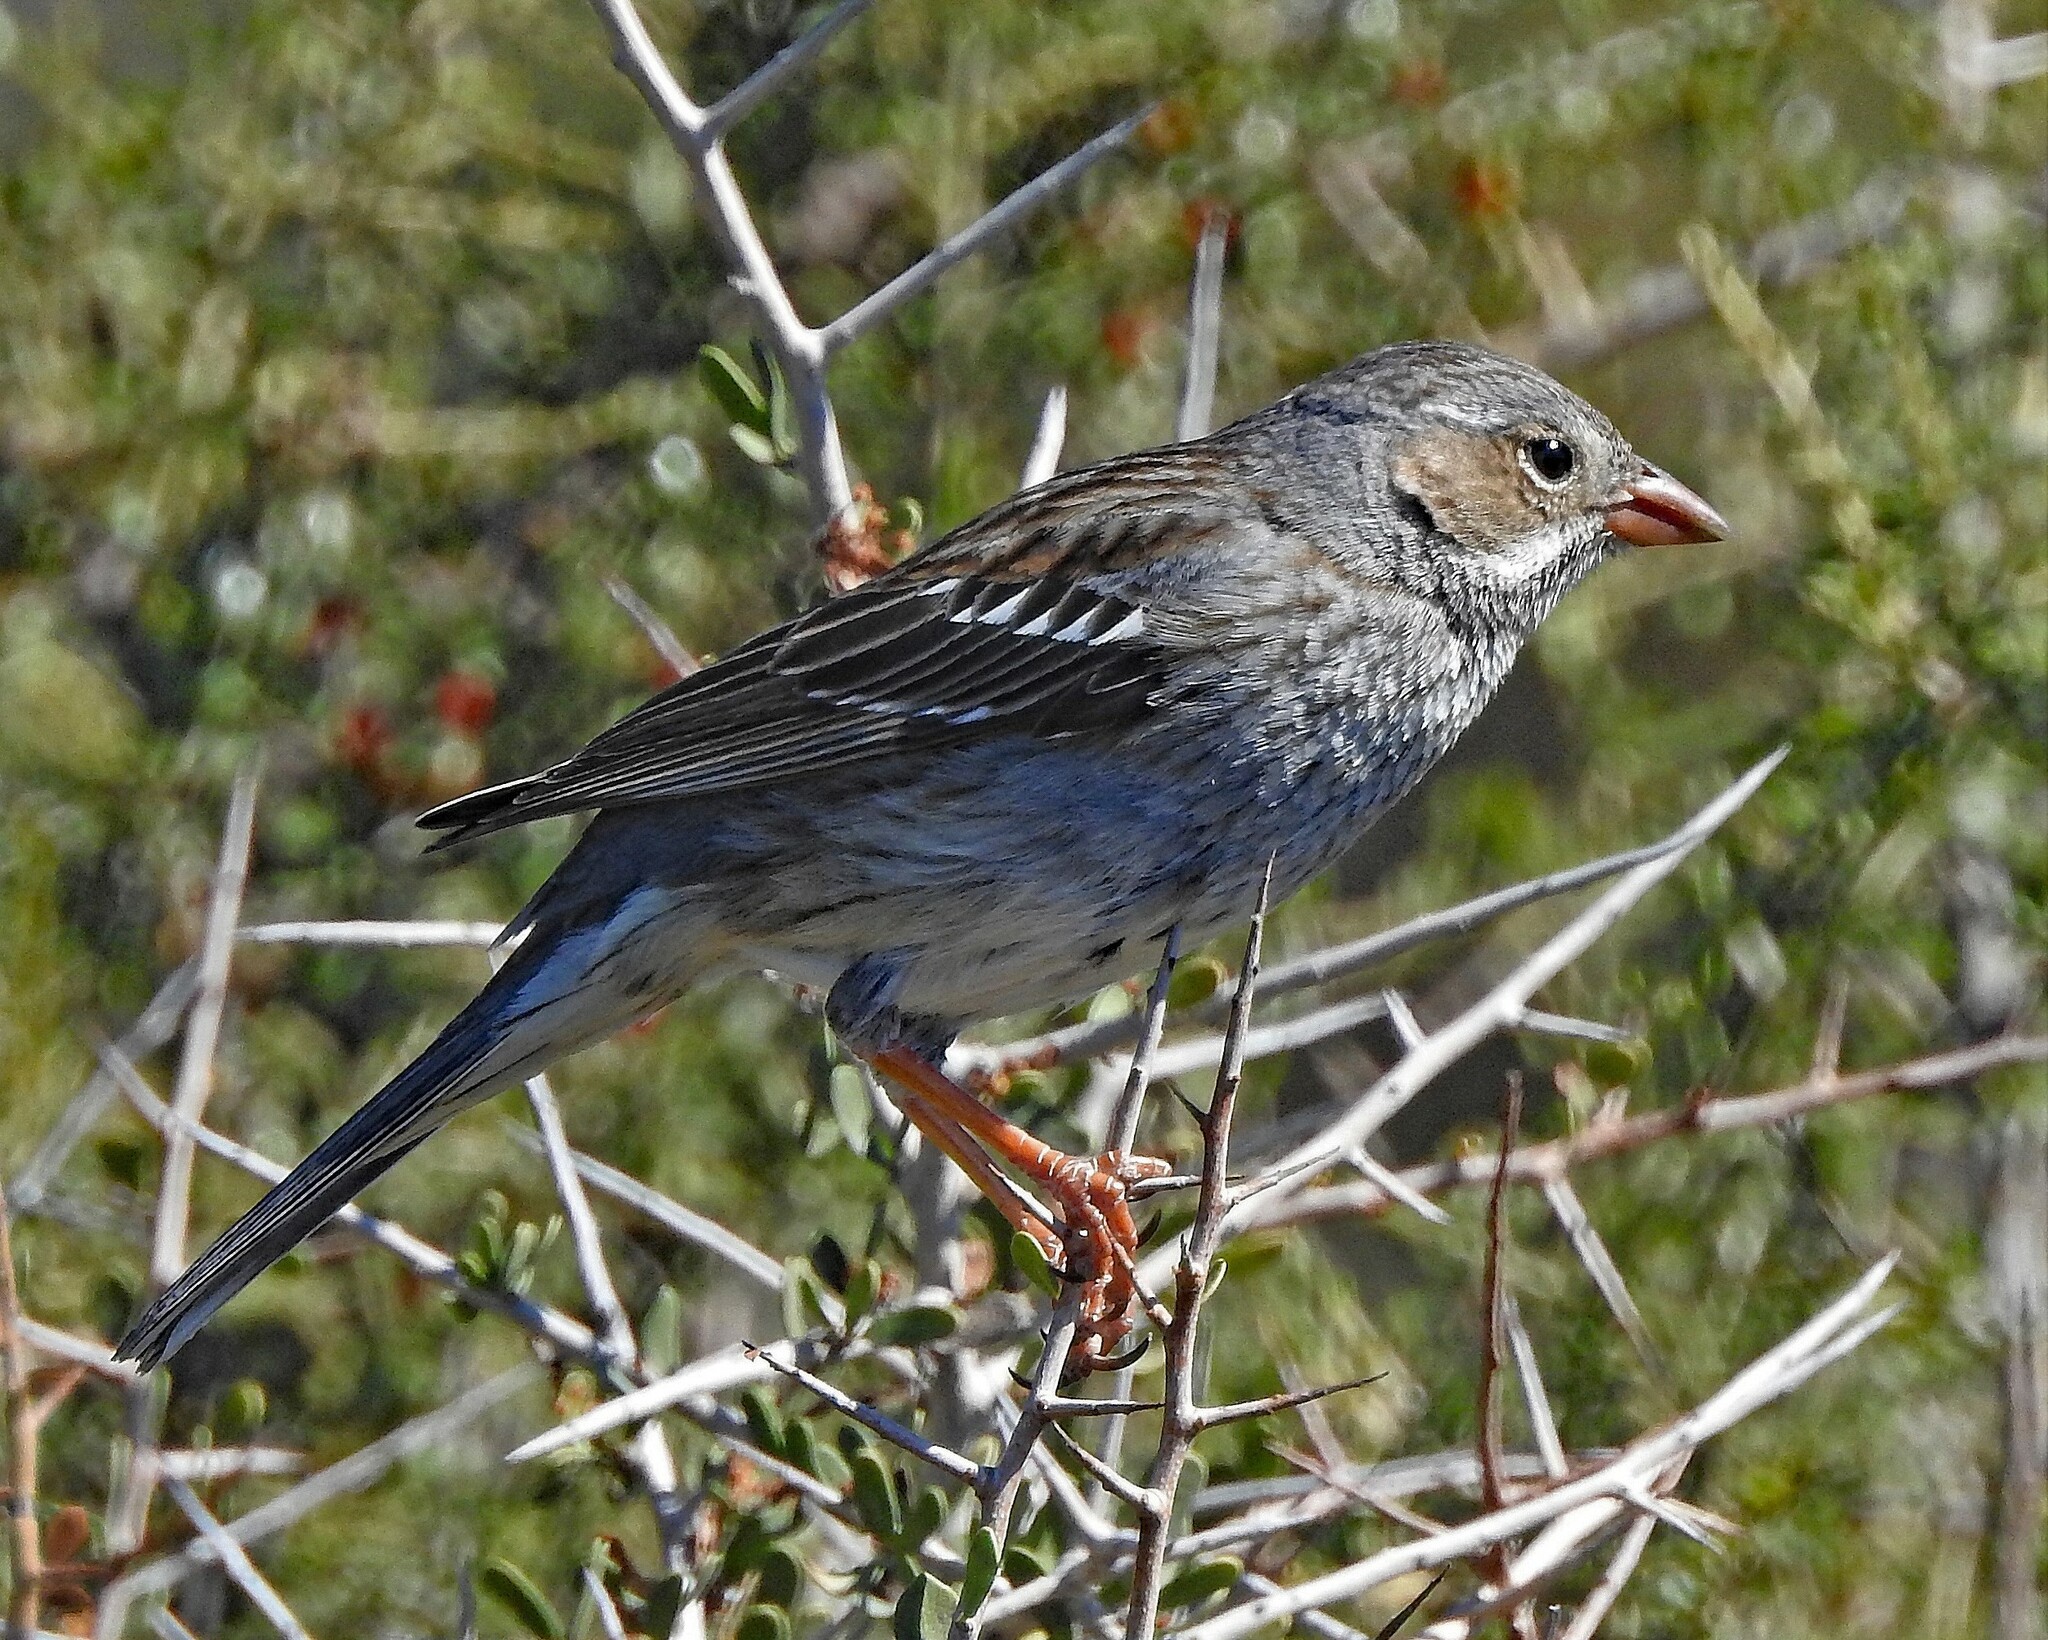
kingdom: Animalia
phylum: Chordata
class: Aves
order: Passeriformes
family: Thraupidae
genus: Rhopospina
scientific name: Rhopospina fruticeti
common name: Mourning sierra finch
